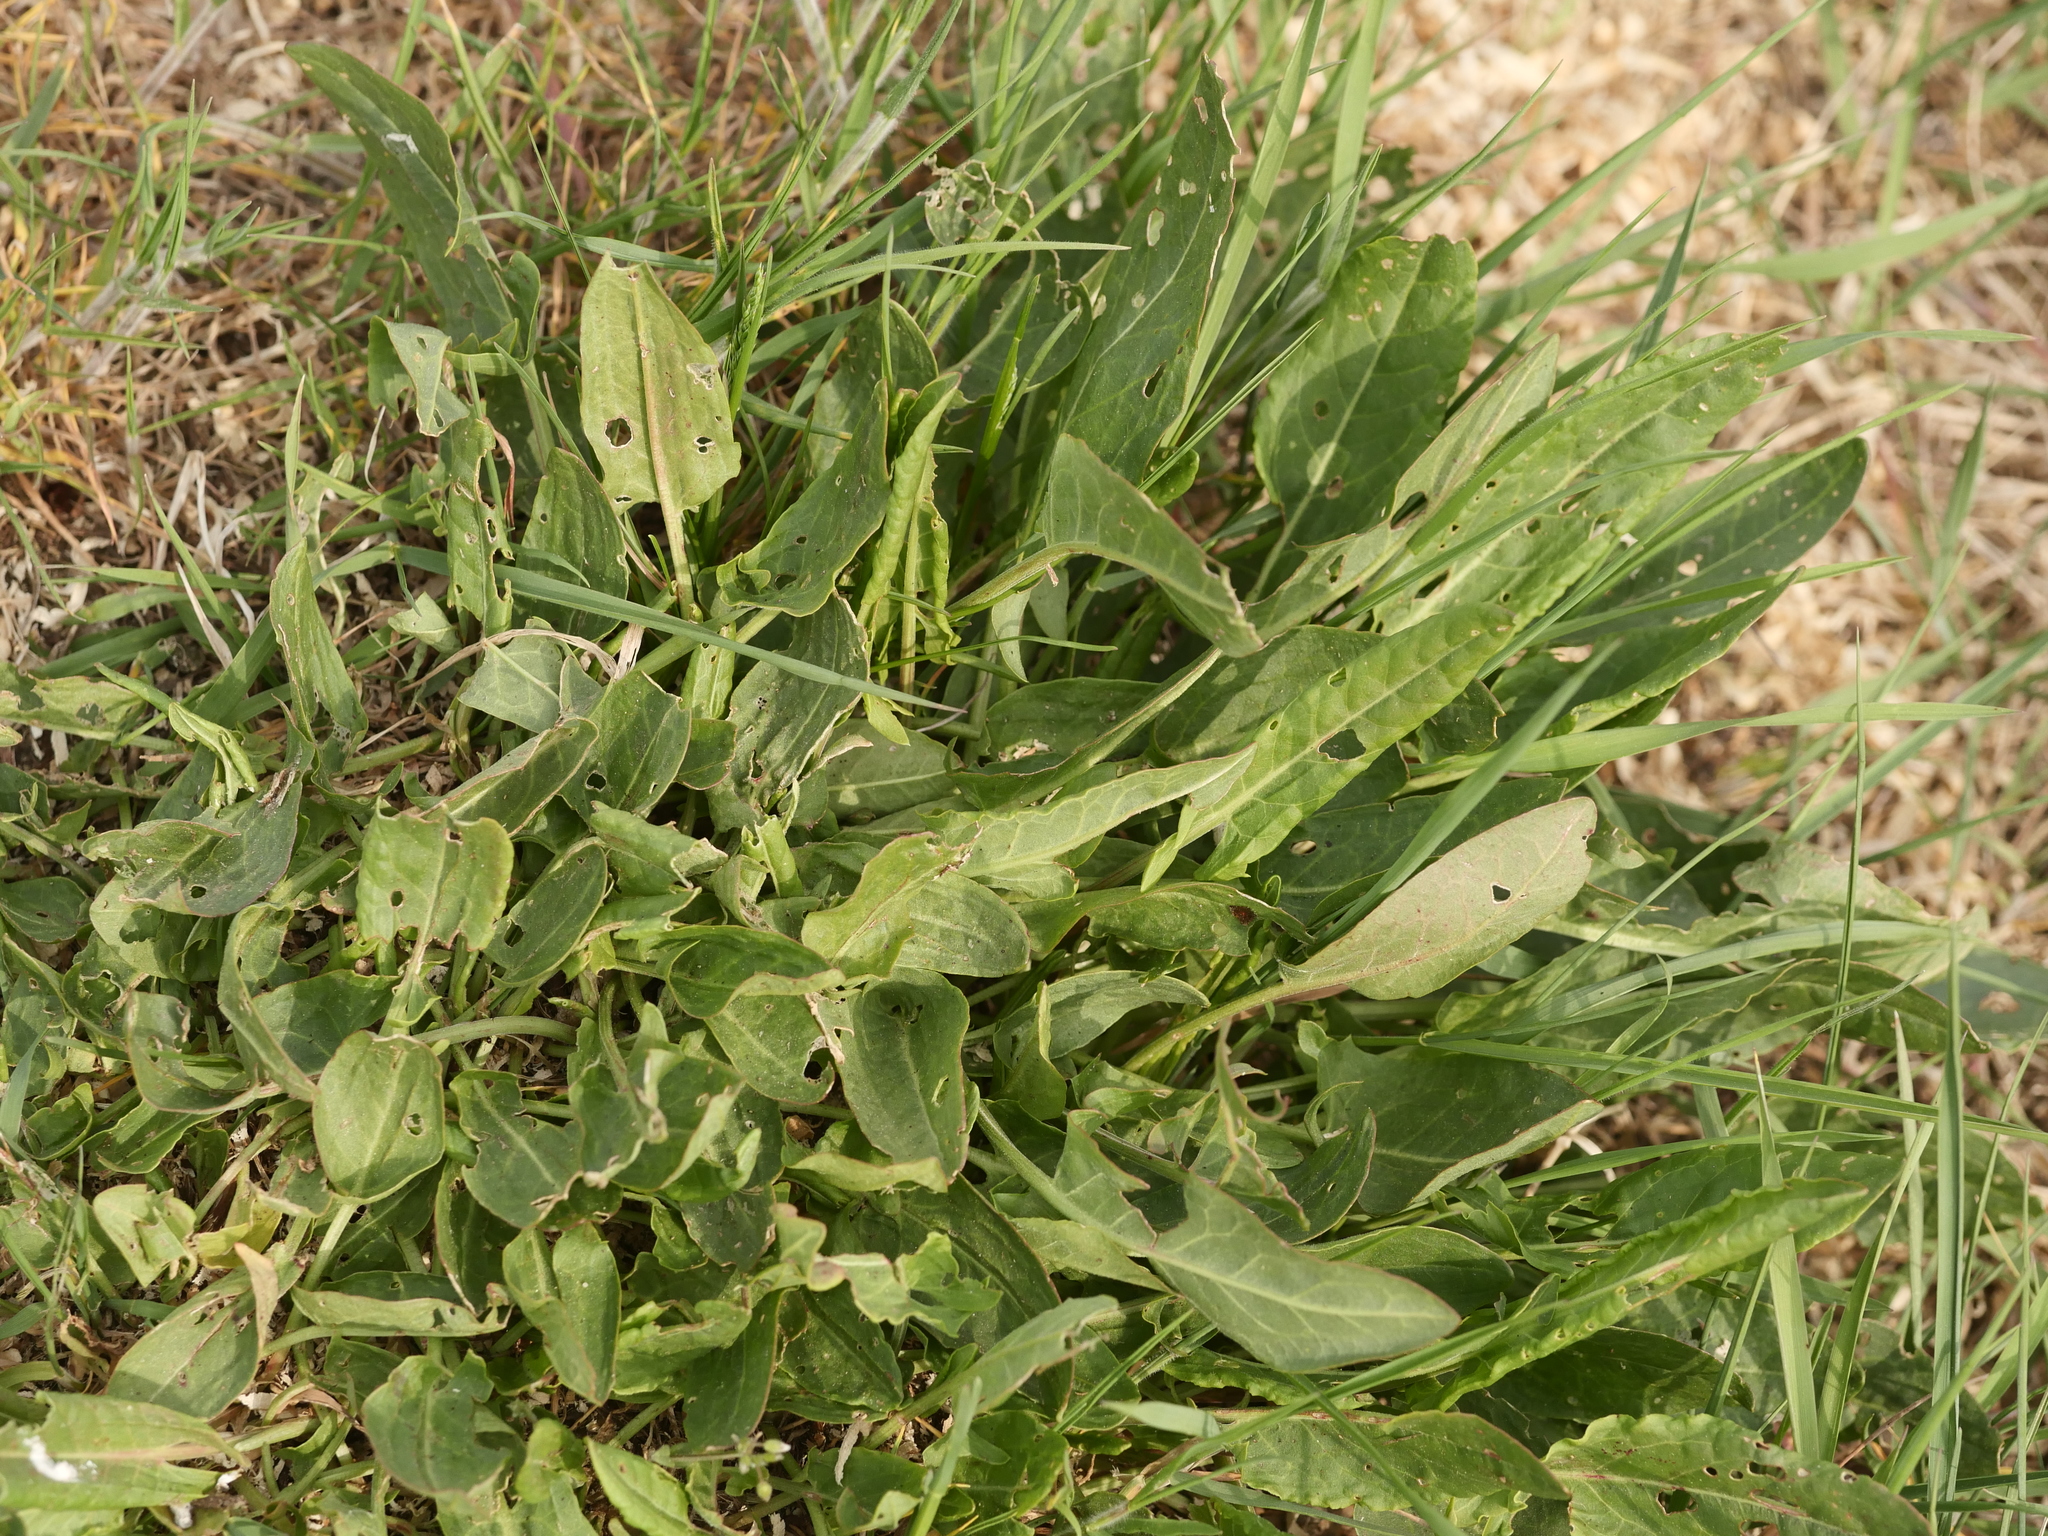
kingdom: Plantae
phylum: Tracheophyta
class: Magnoliopsida
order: Caryophyllales
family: Polygonaceae
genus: Rumex
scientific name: Rumex acetosa
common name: Garden sorrel
